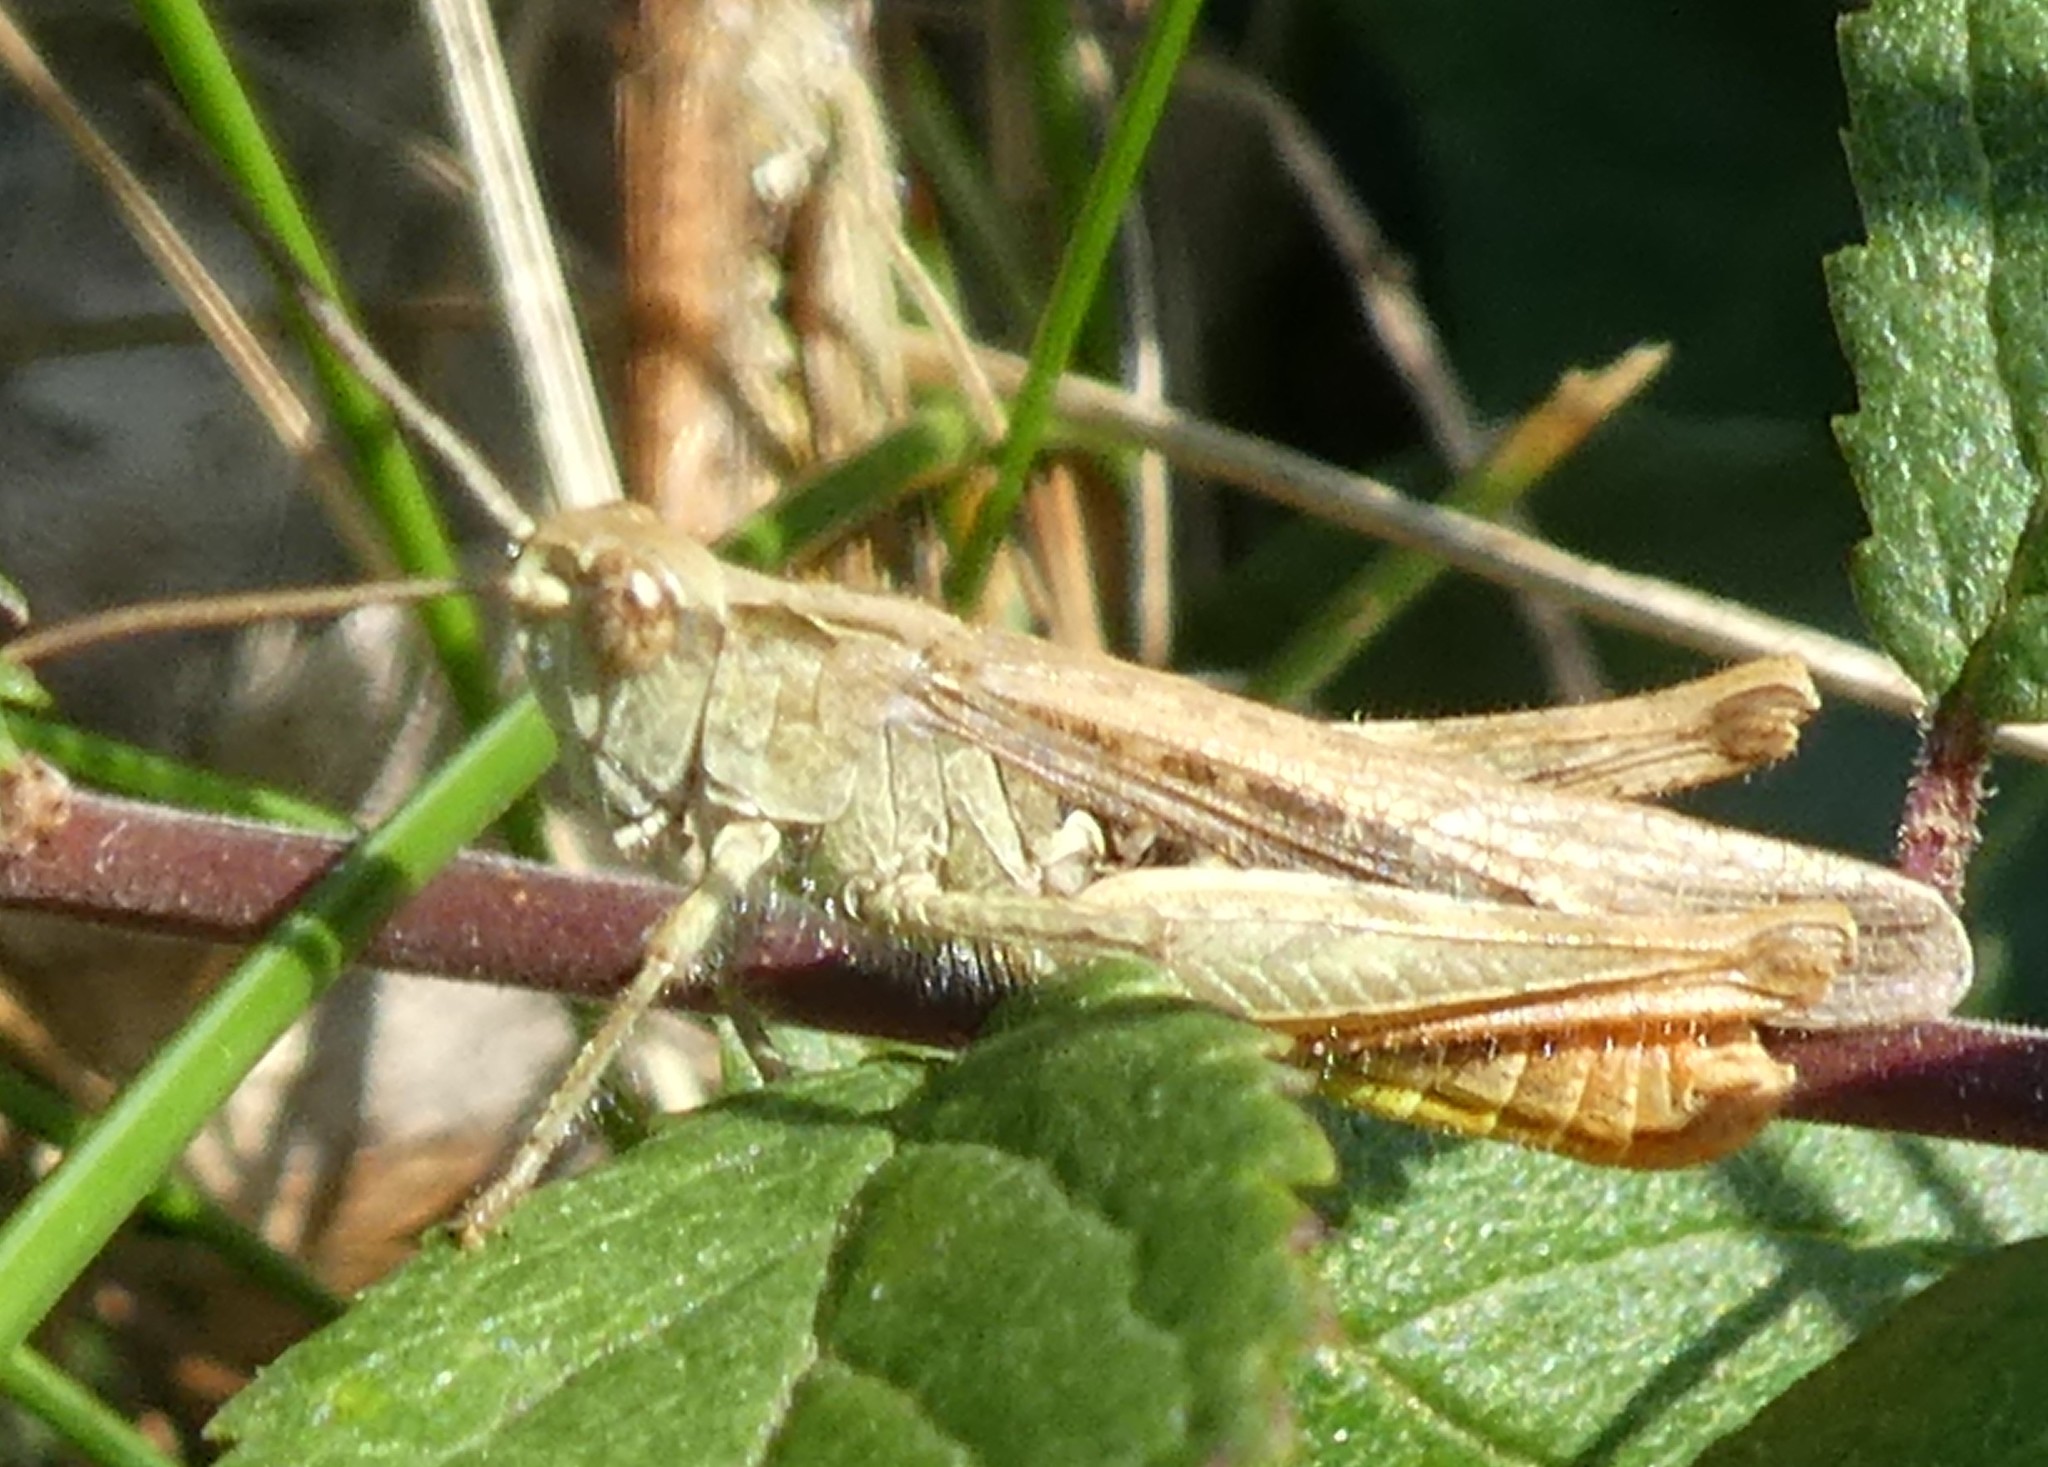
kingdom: Animalia
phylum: Arthropoda
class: Insecta
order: Orthoptera
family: Acrididae
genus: Chorthippus
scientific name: Chorthippus brunneus
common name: Field grasshopper
